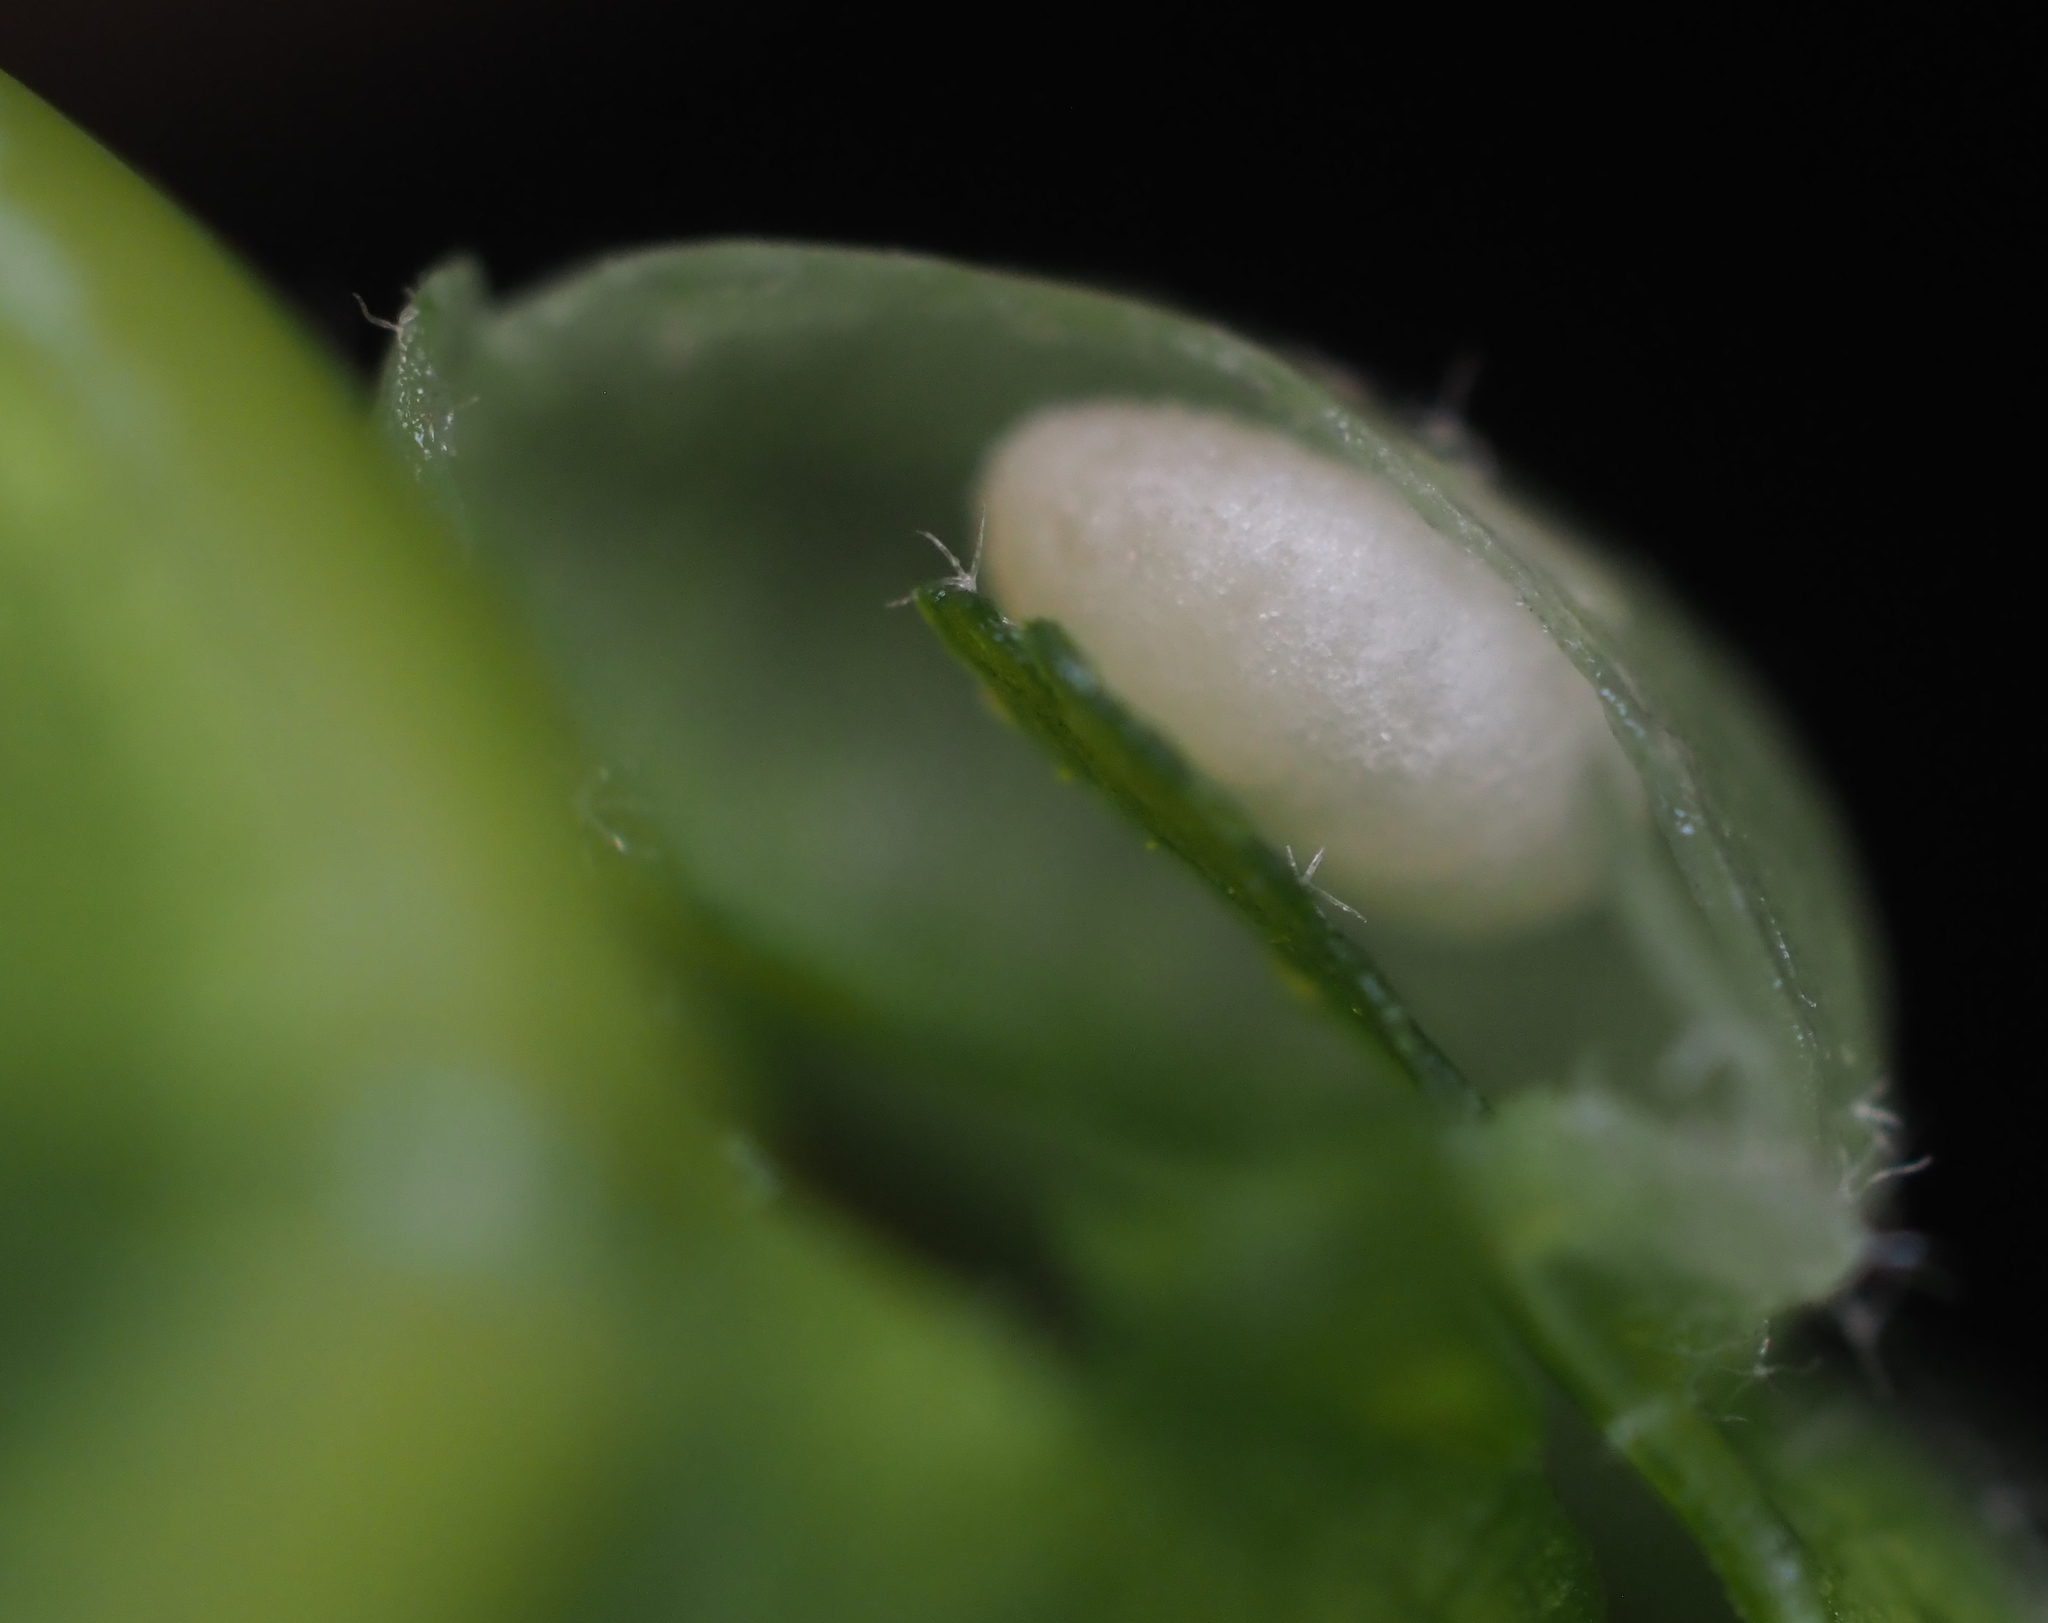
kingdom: Animalia
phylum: Arthropoda
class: Insecta
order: Hymenoptera
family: Cynipidae
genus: Dryocosmus
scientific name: Dryocosmus
